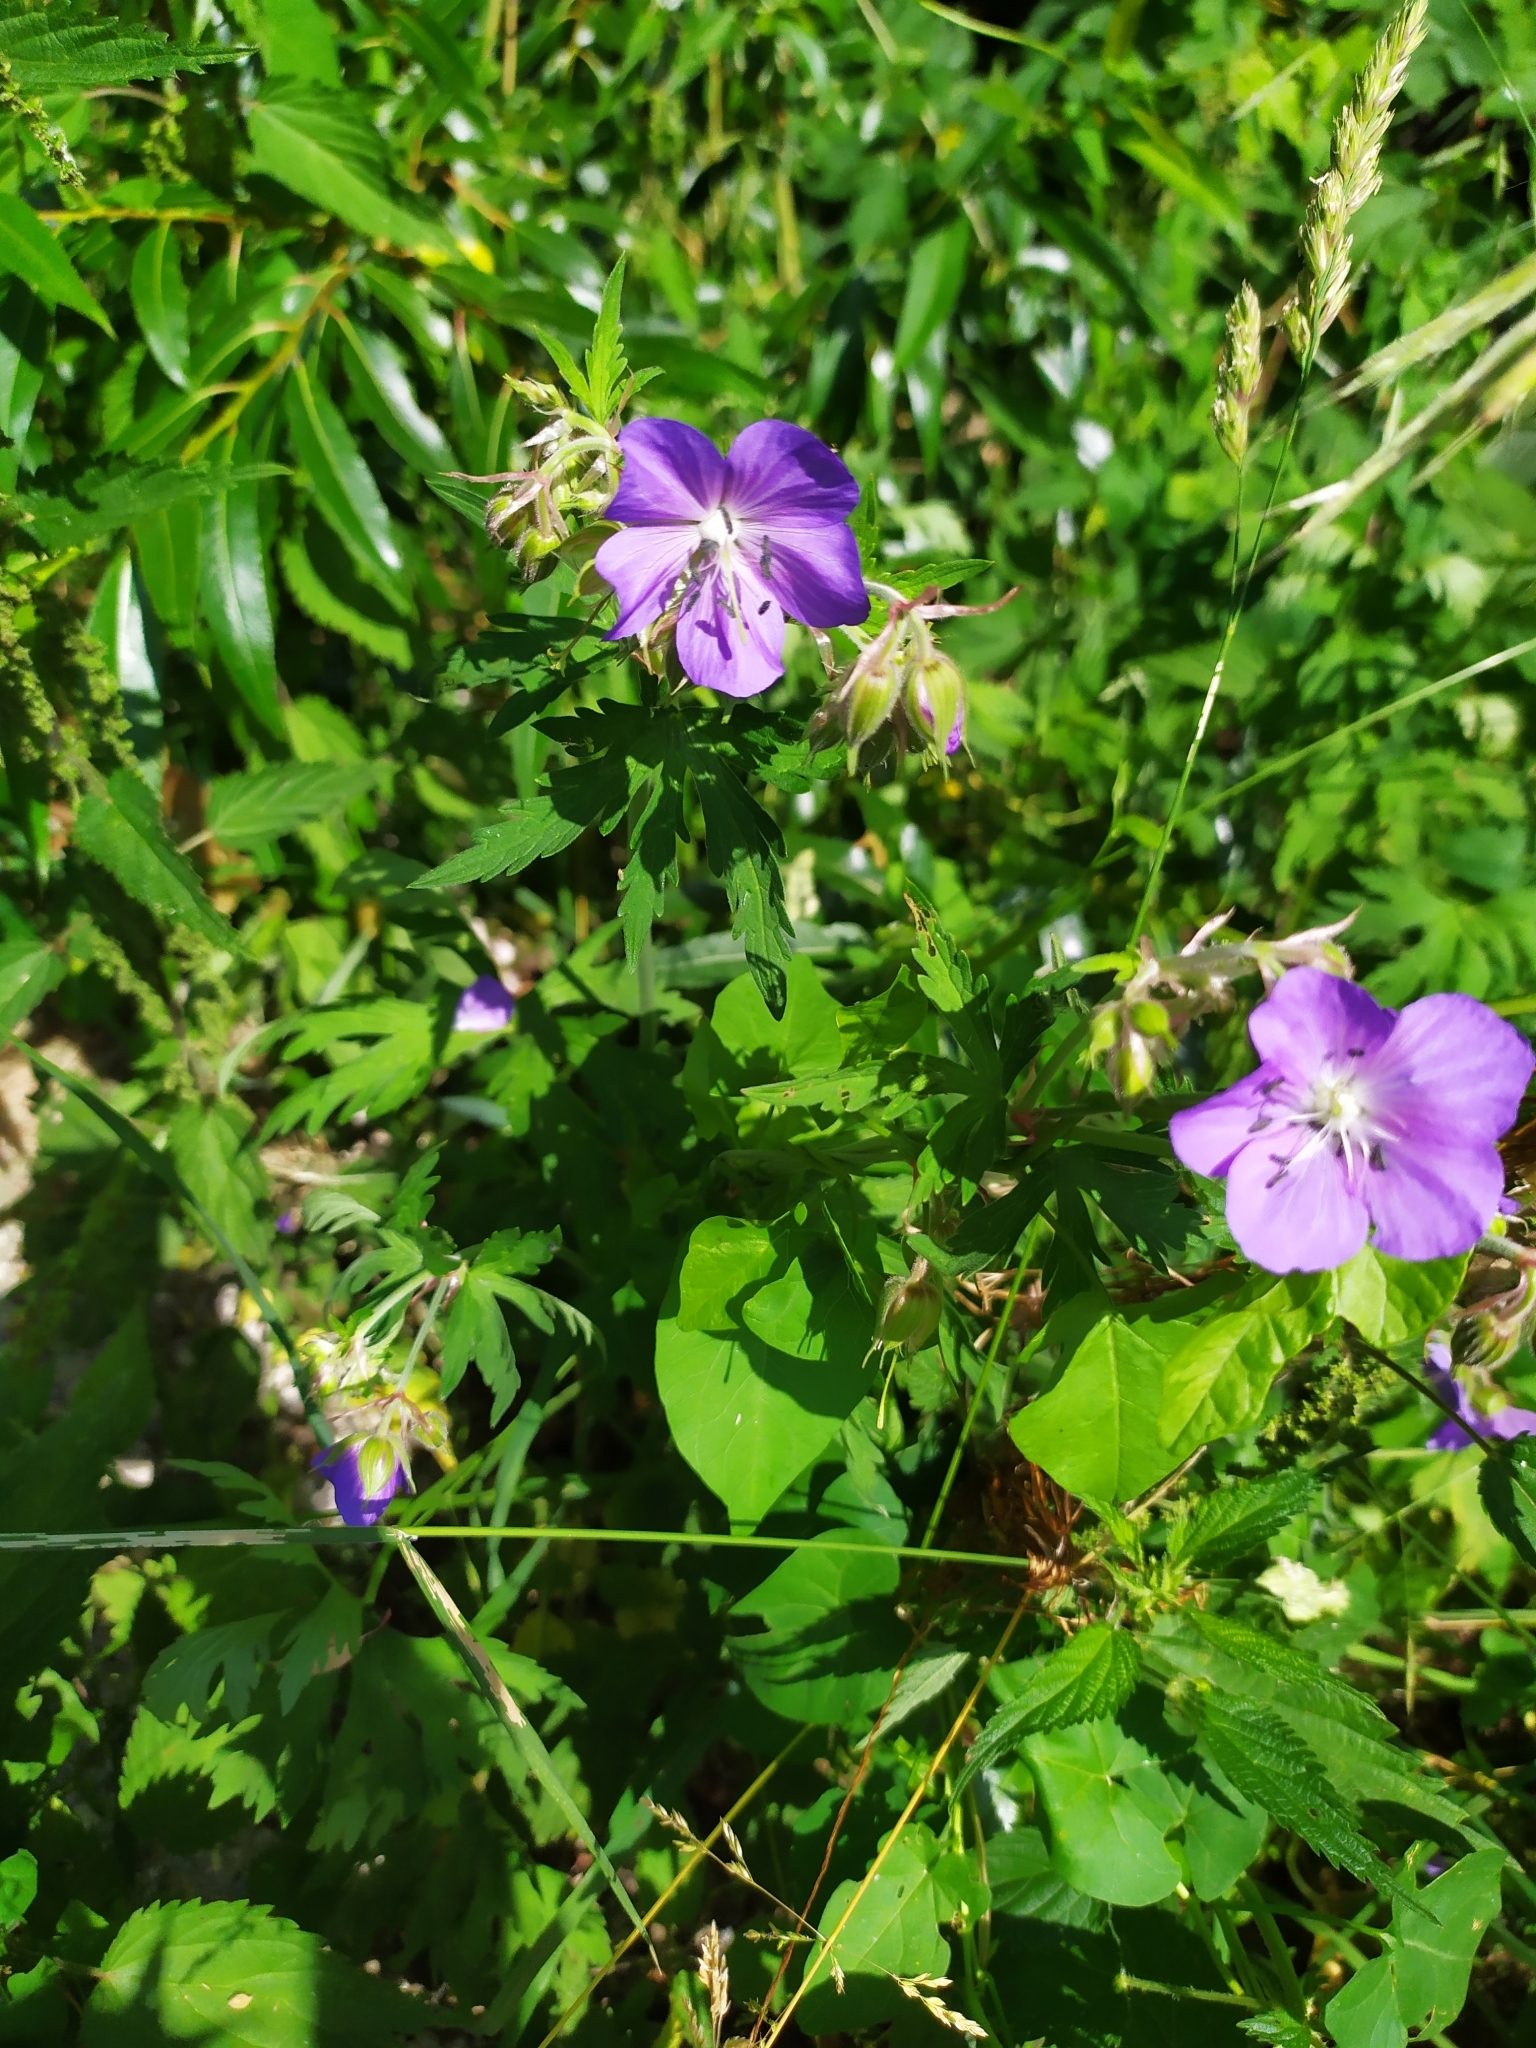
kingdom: Plantae
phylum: Tracheophyta
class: Magnoliopsida
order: Geraniales
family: Geraniaceae
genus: Geranium
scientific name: Geranium pratense
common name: Meadow crane's-bill
